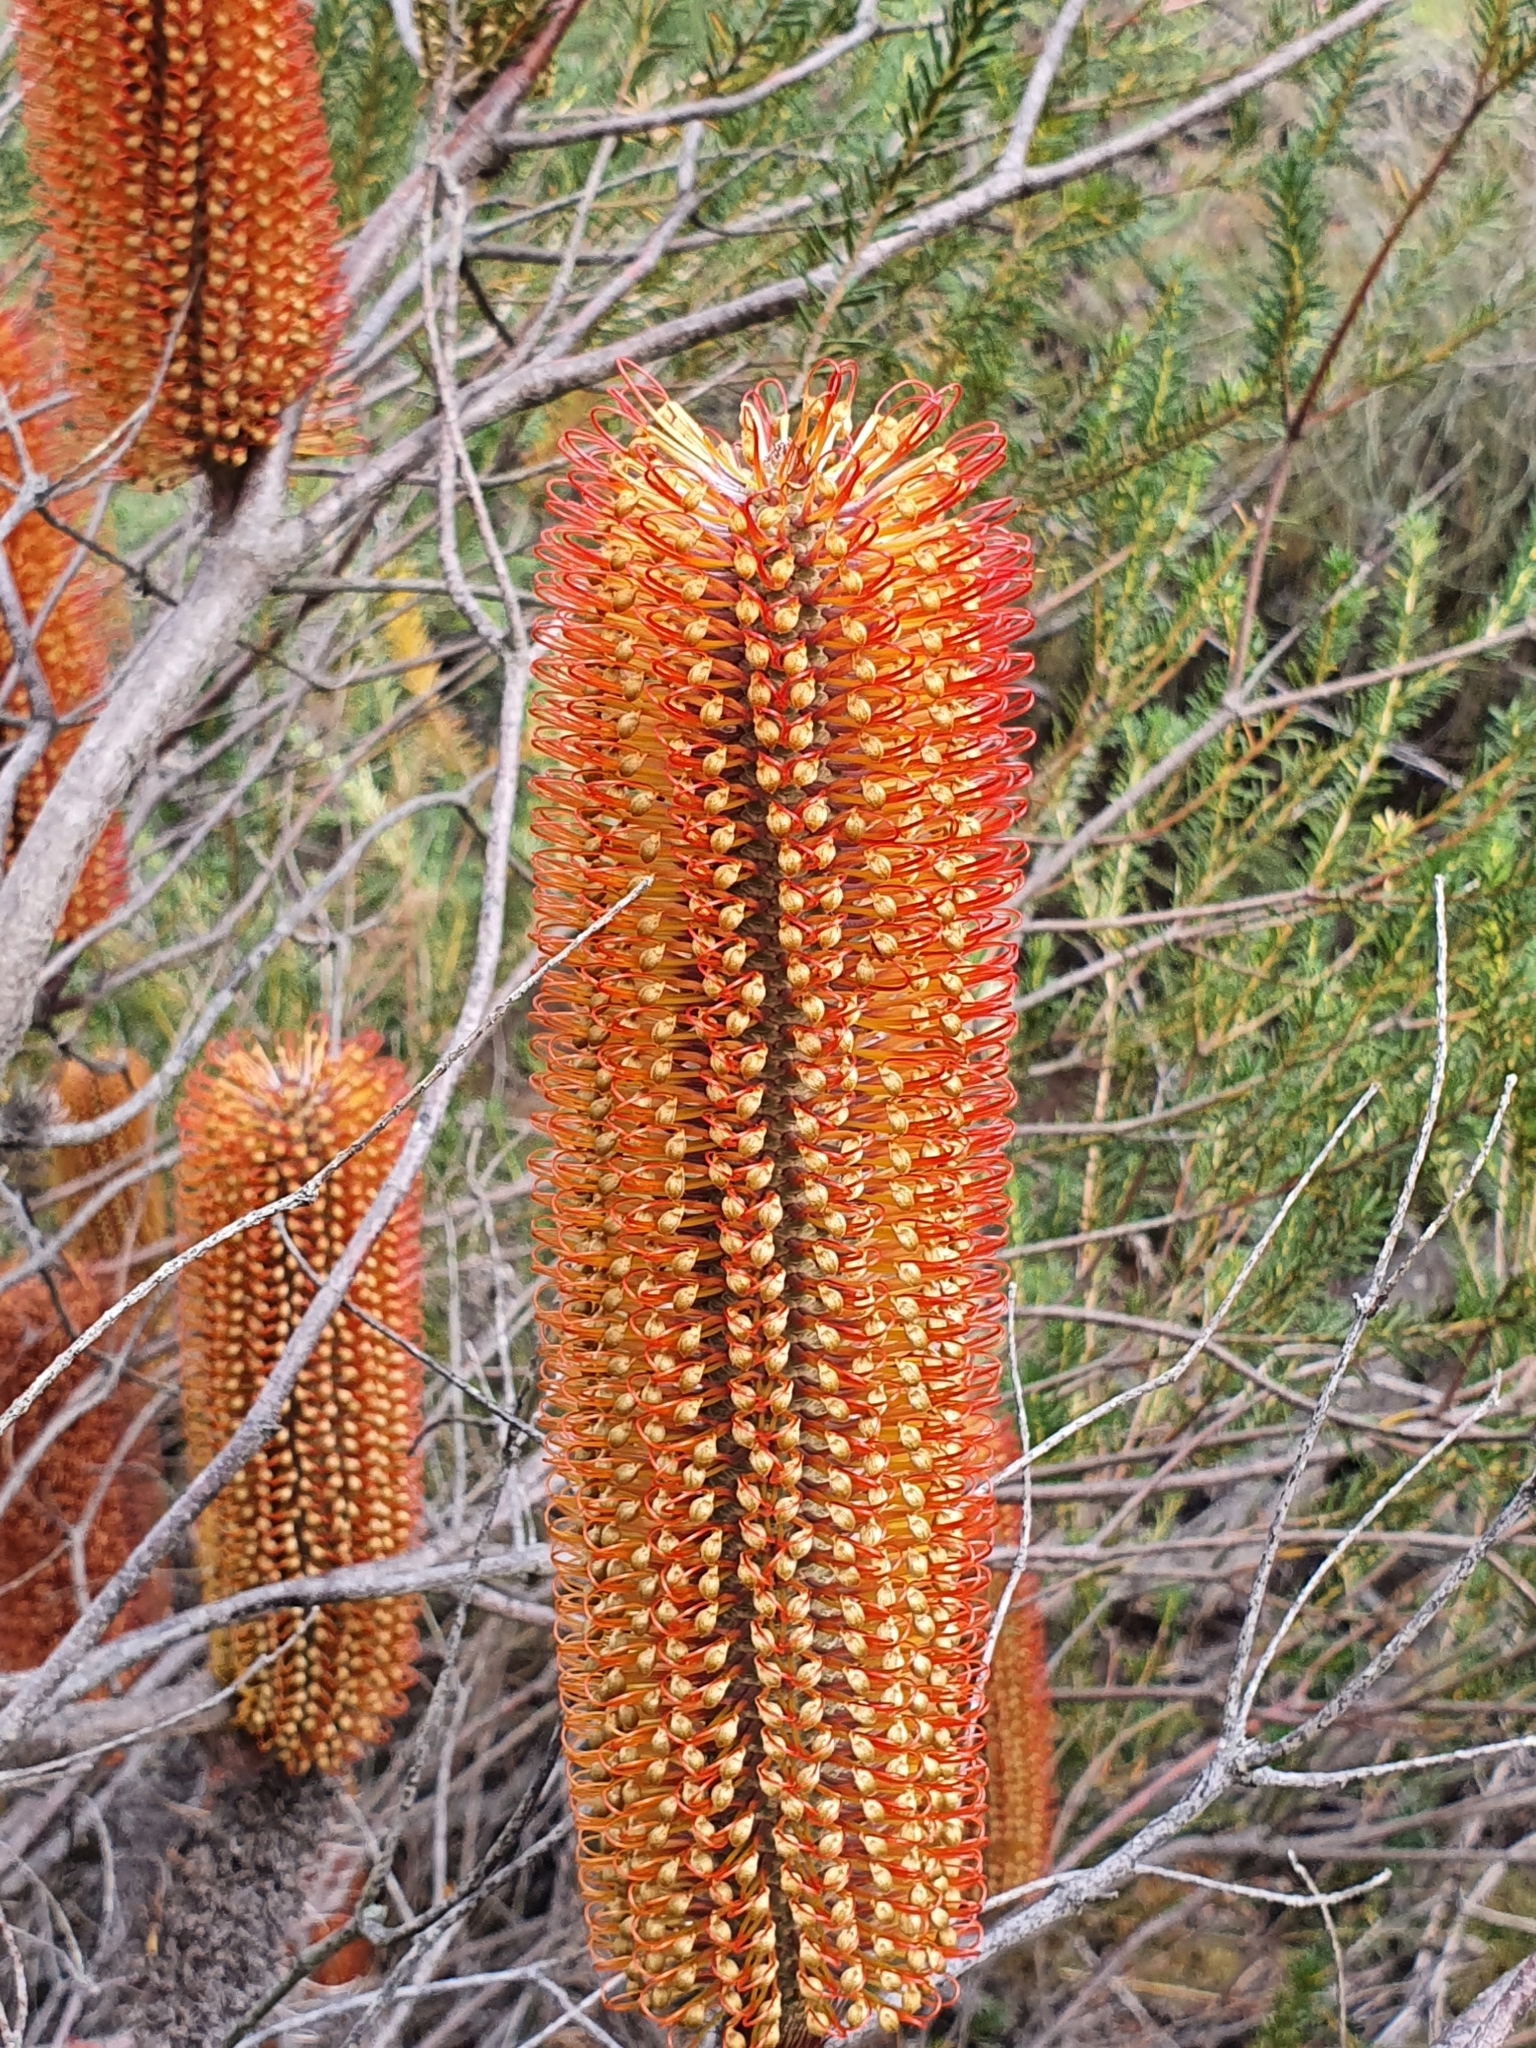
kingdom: Plantae
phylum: Tracheophyta
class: Magnoliopsida
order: Proteales
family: Proteaceae
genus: Banksia
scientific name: Banksia ericifolia
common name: Heath-leaf banksia
